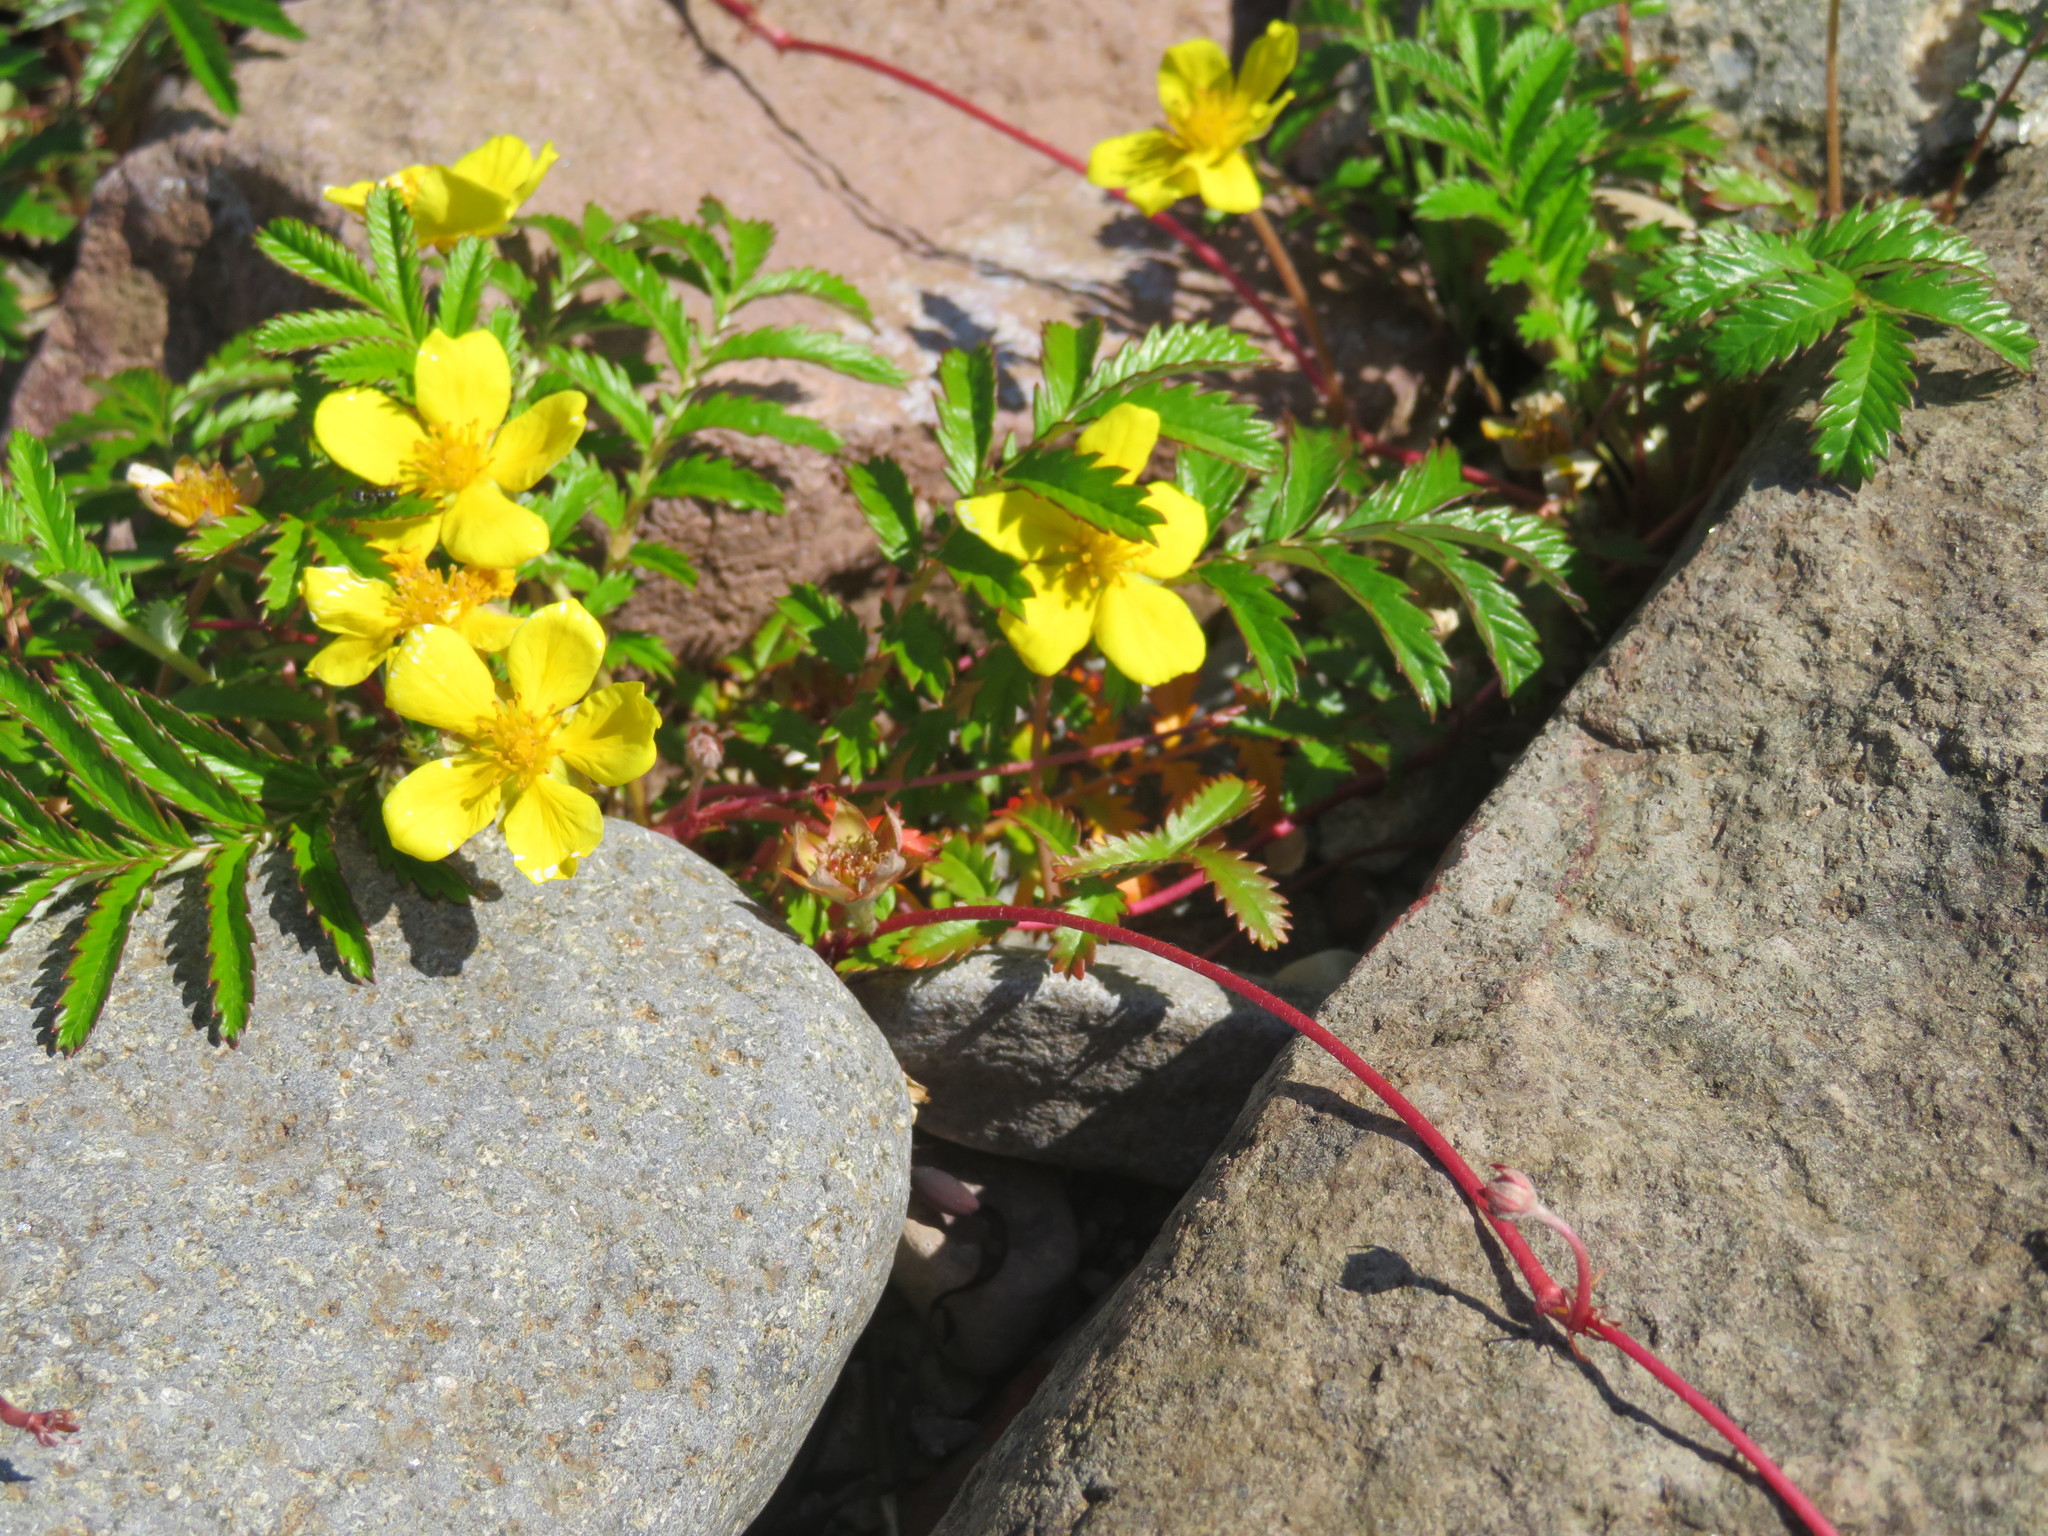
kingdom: Plantae
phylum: Tracheophyta
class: Magnoliopsida
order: Rosales
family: Rosaceae
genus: Argentina
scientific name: Argentina anserina
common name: Common silverweed
